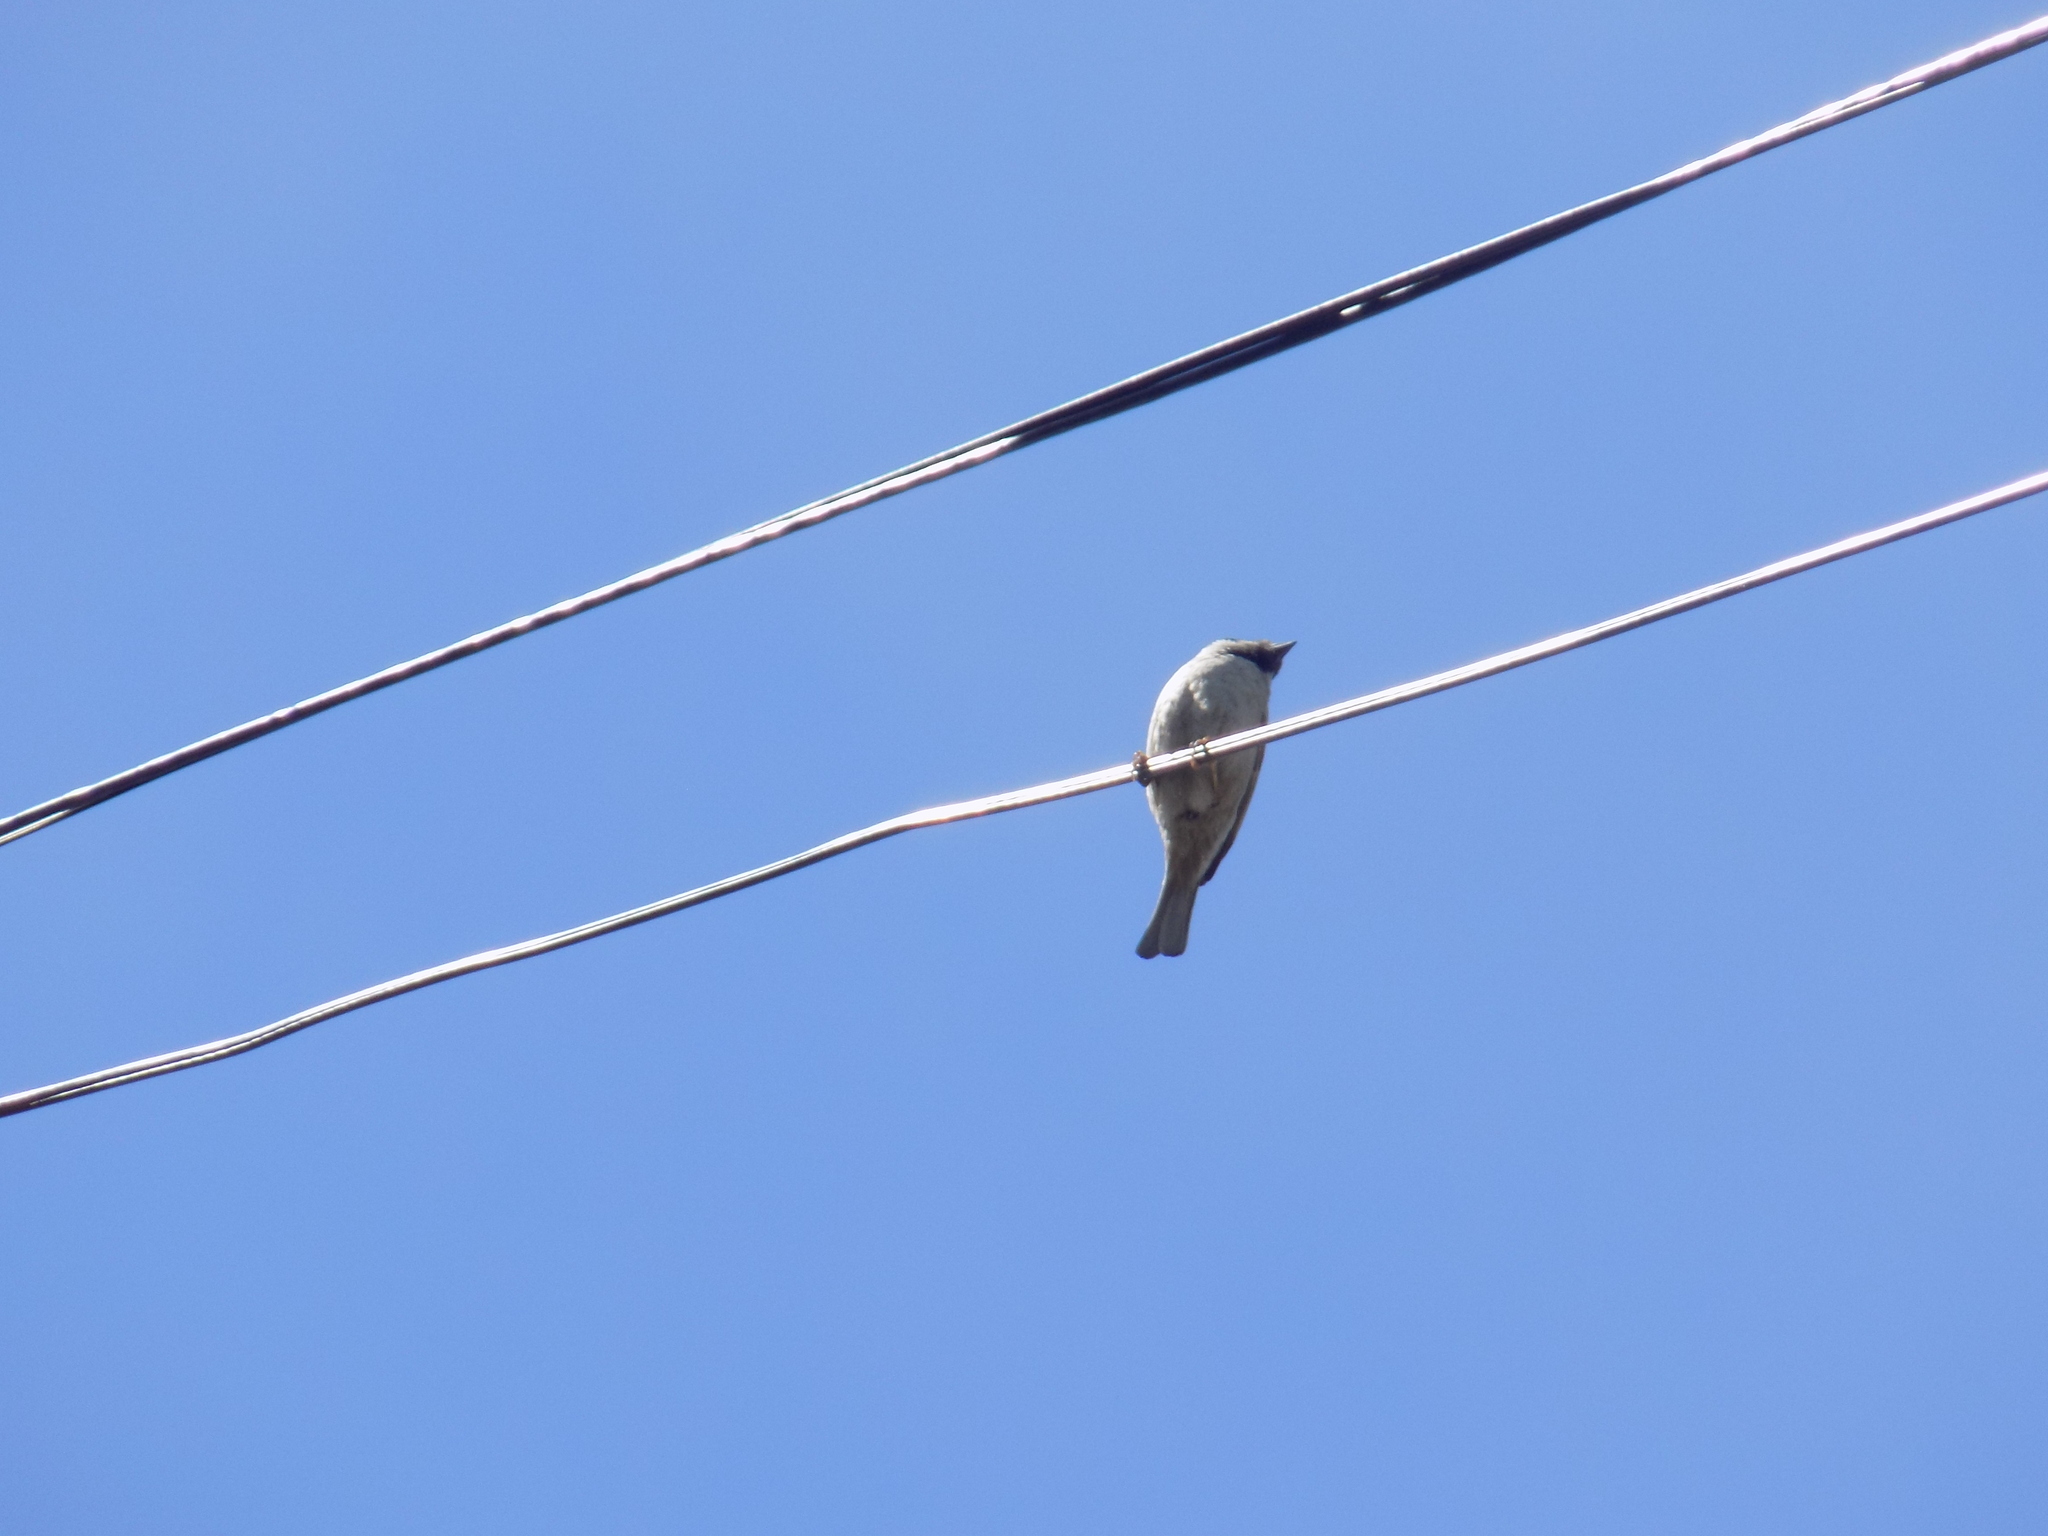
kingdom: Animalia
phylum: Chordata
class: Aves
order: Passeriformes
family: Passeridae
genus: Passer
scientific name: Passer montanus
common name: Eurasian tree sparrow
